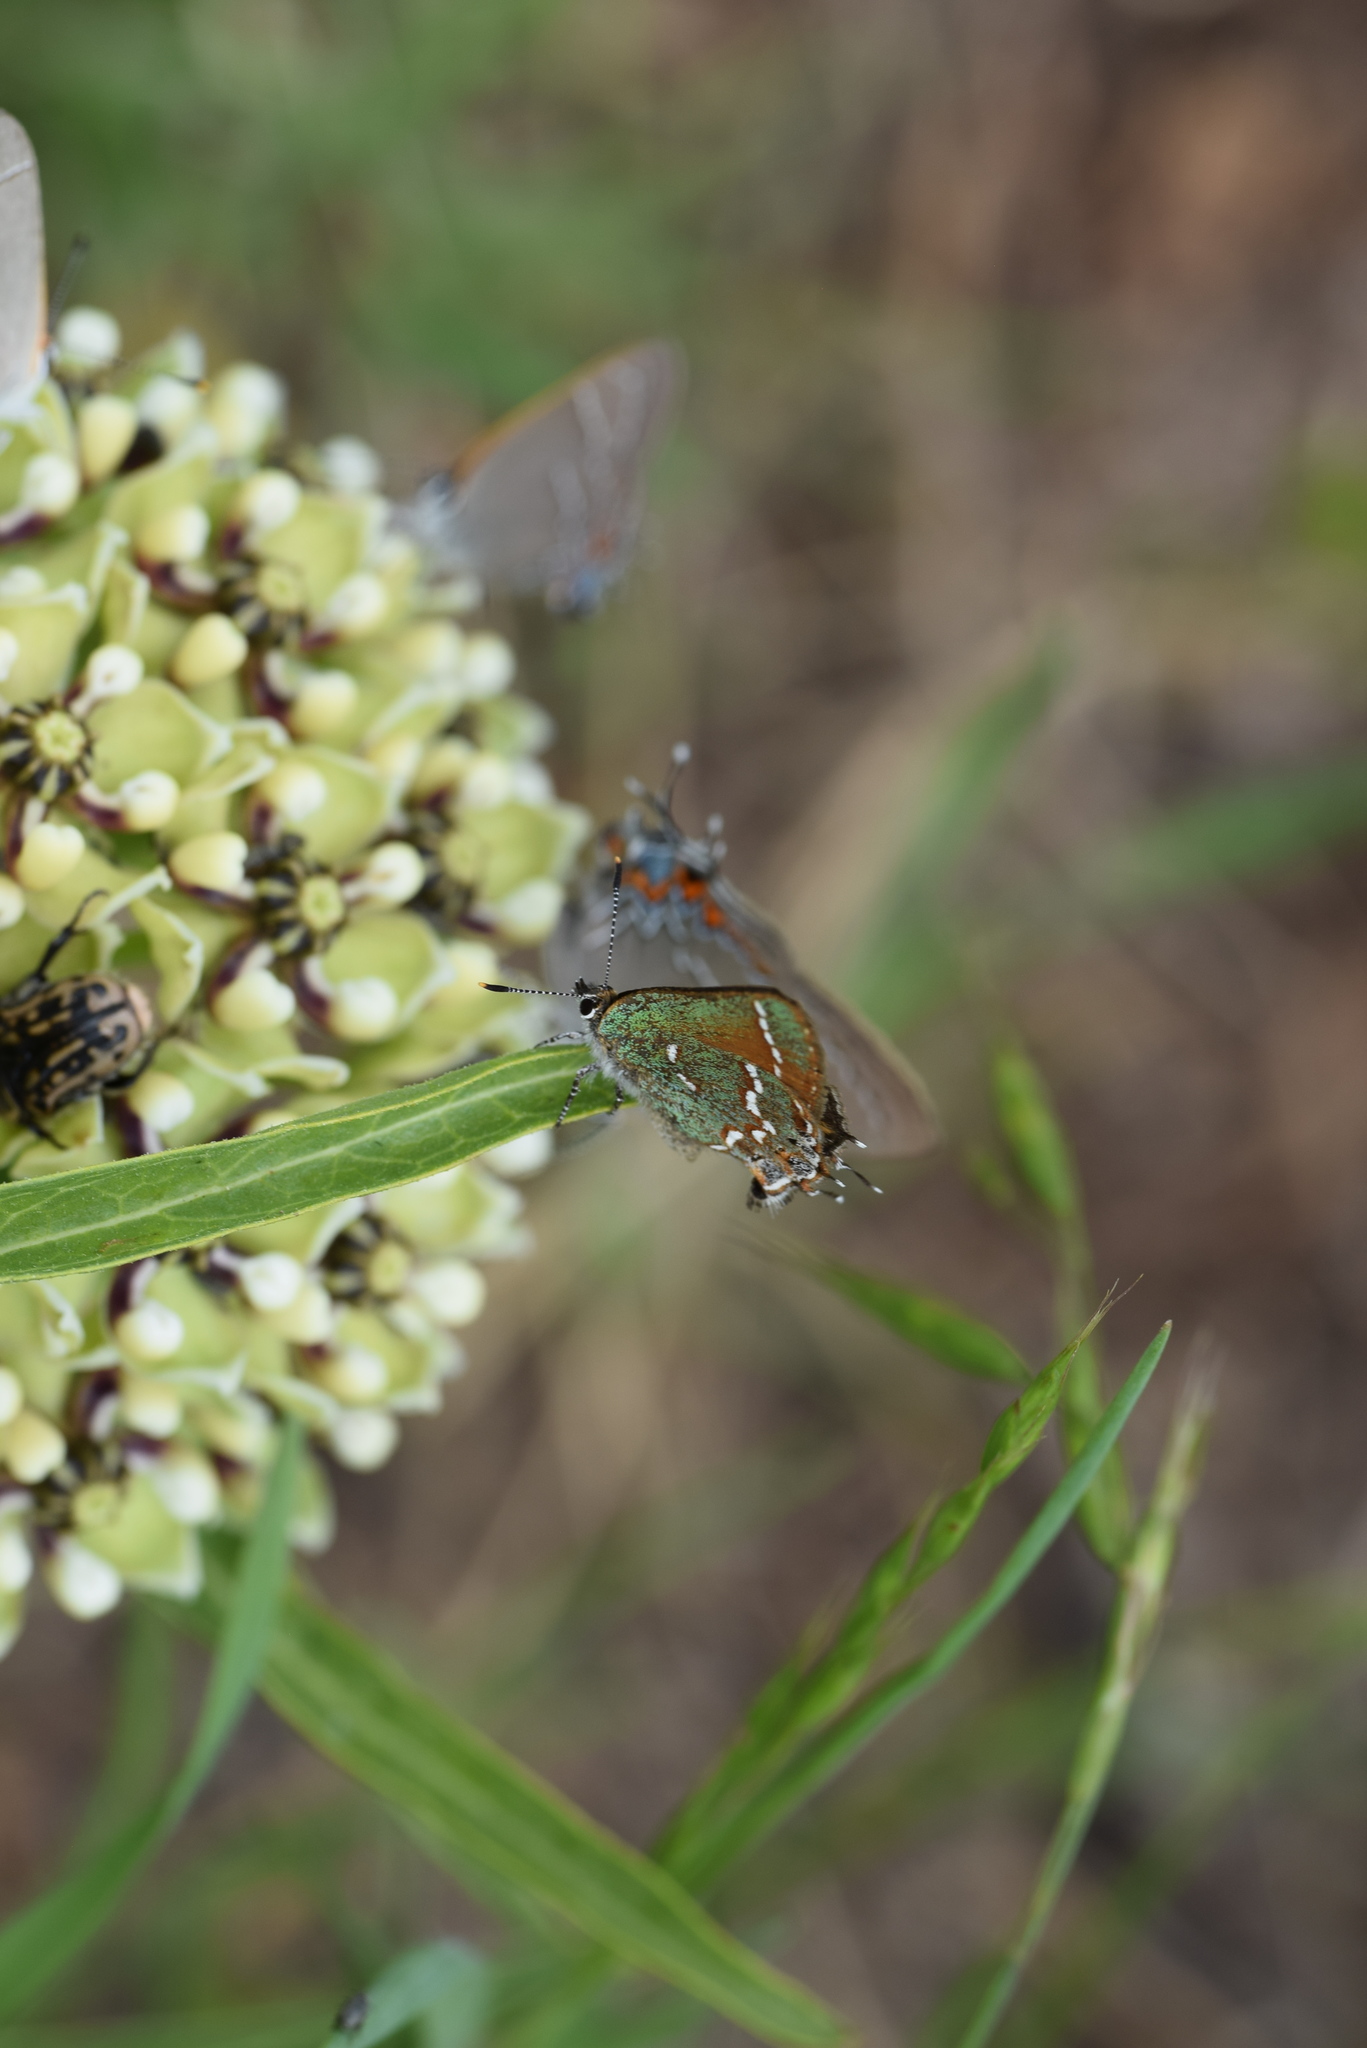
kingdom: Animalia
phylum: Arthropoda
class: Insecta
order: Lepidoptera
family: Lycaenidae
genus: Mitoura
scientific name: Mitoura gryneus
